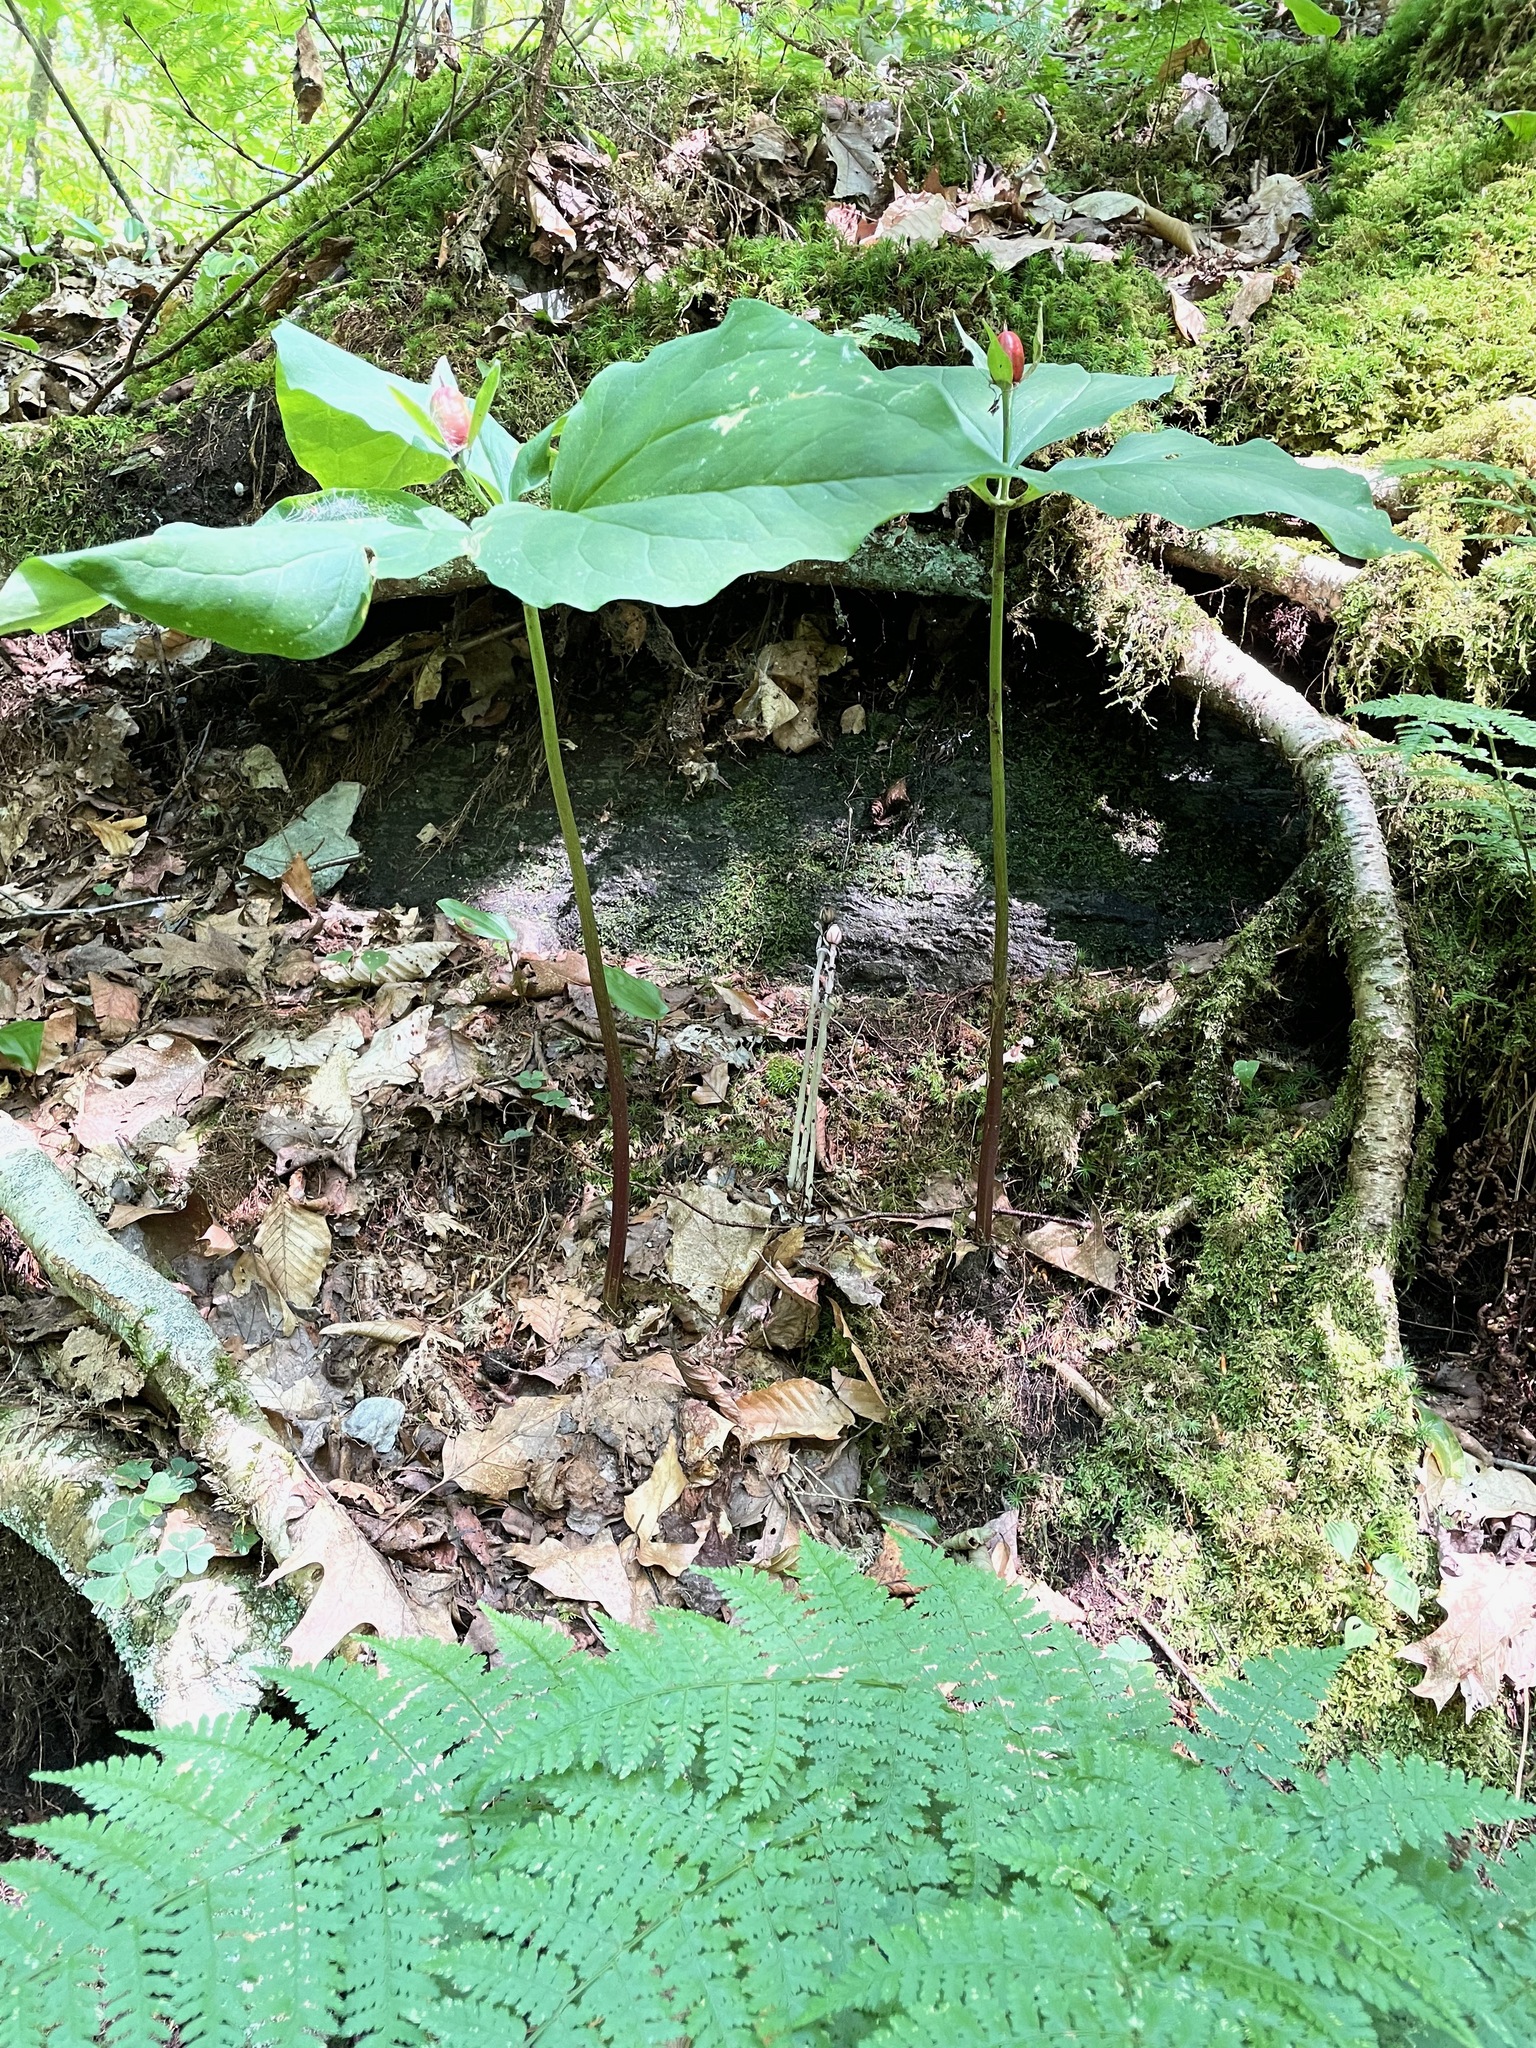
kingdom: Plantae
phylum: Tracheophyta
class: Liliopsida
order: Liliales
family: Melanthiaceae
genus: Trillium
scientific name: Trillium undulatum
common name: Paint trillium
